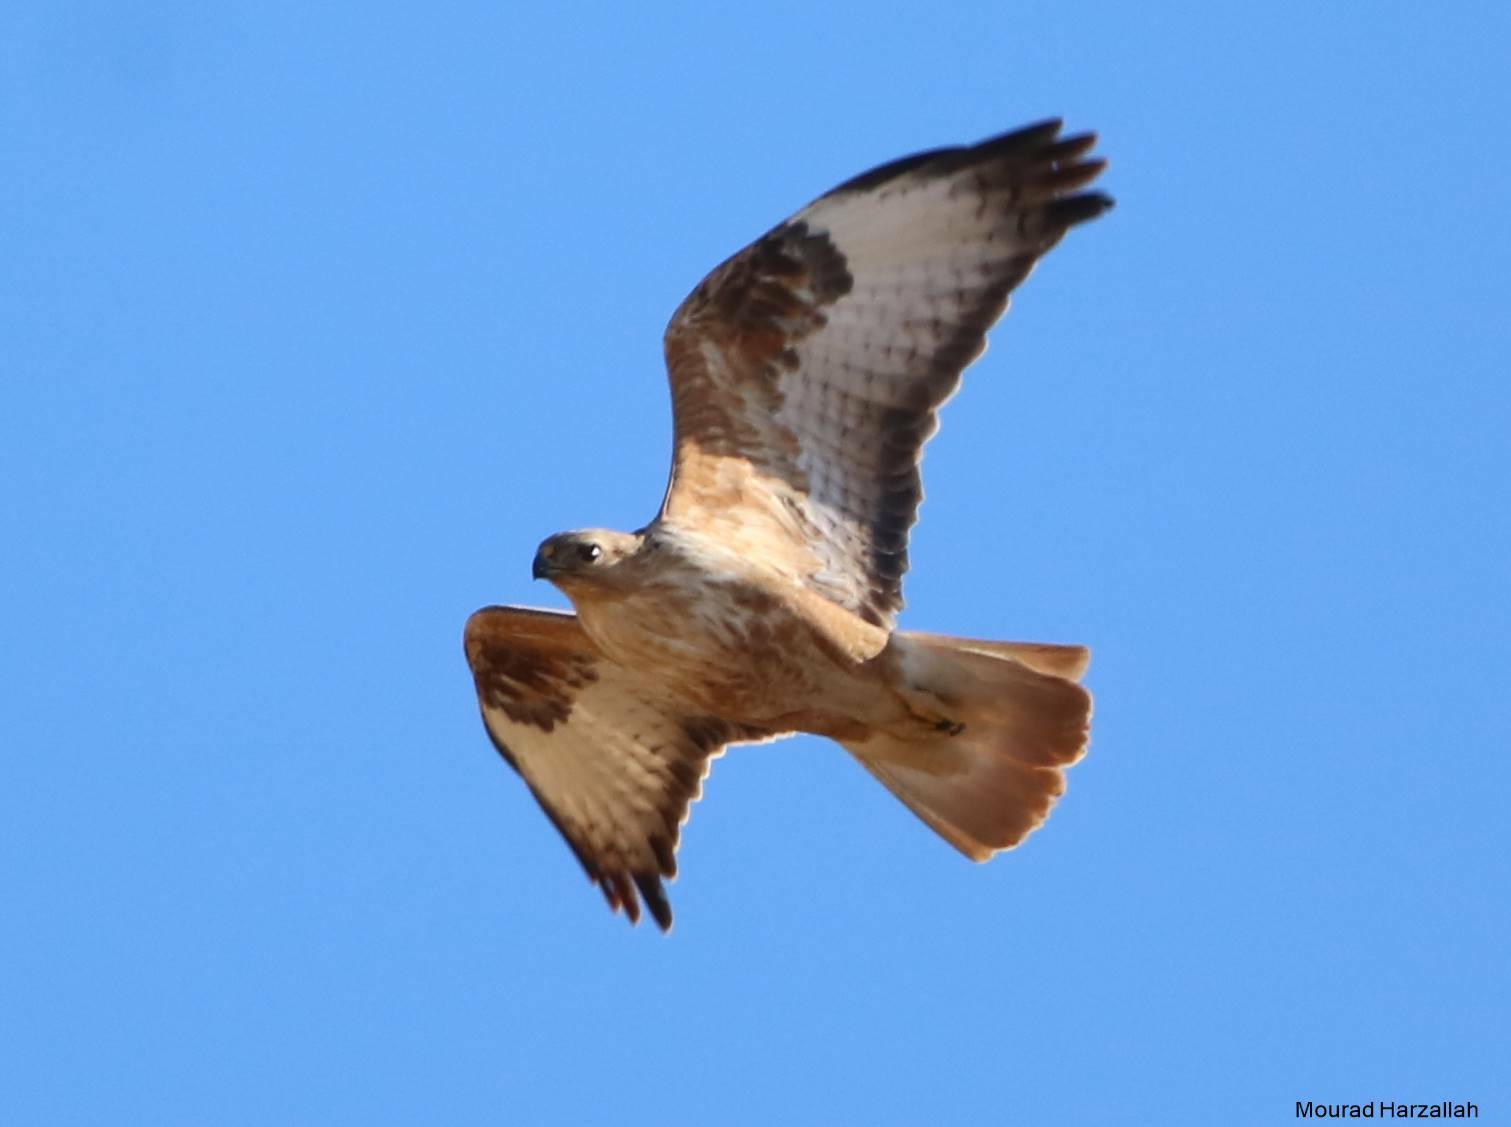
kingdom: Animalia
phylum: Chordata
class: Aves
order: Accipitriformes
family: Accipitridae
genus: Buteo
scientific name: Buteo rufinus
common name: Long-legged buzzard
